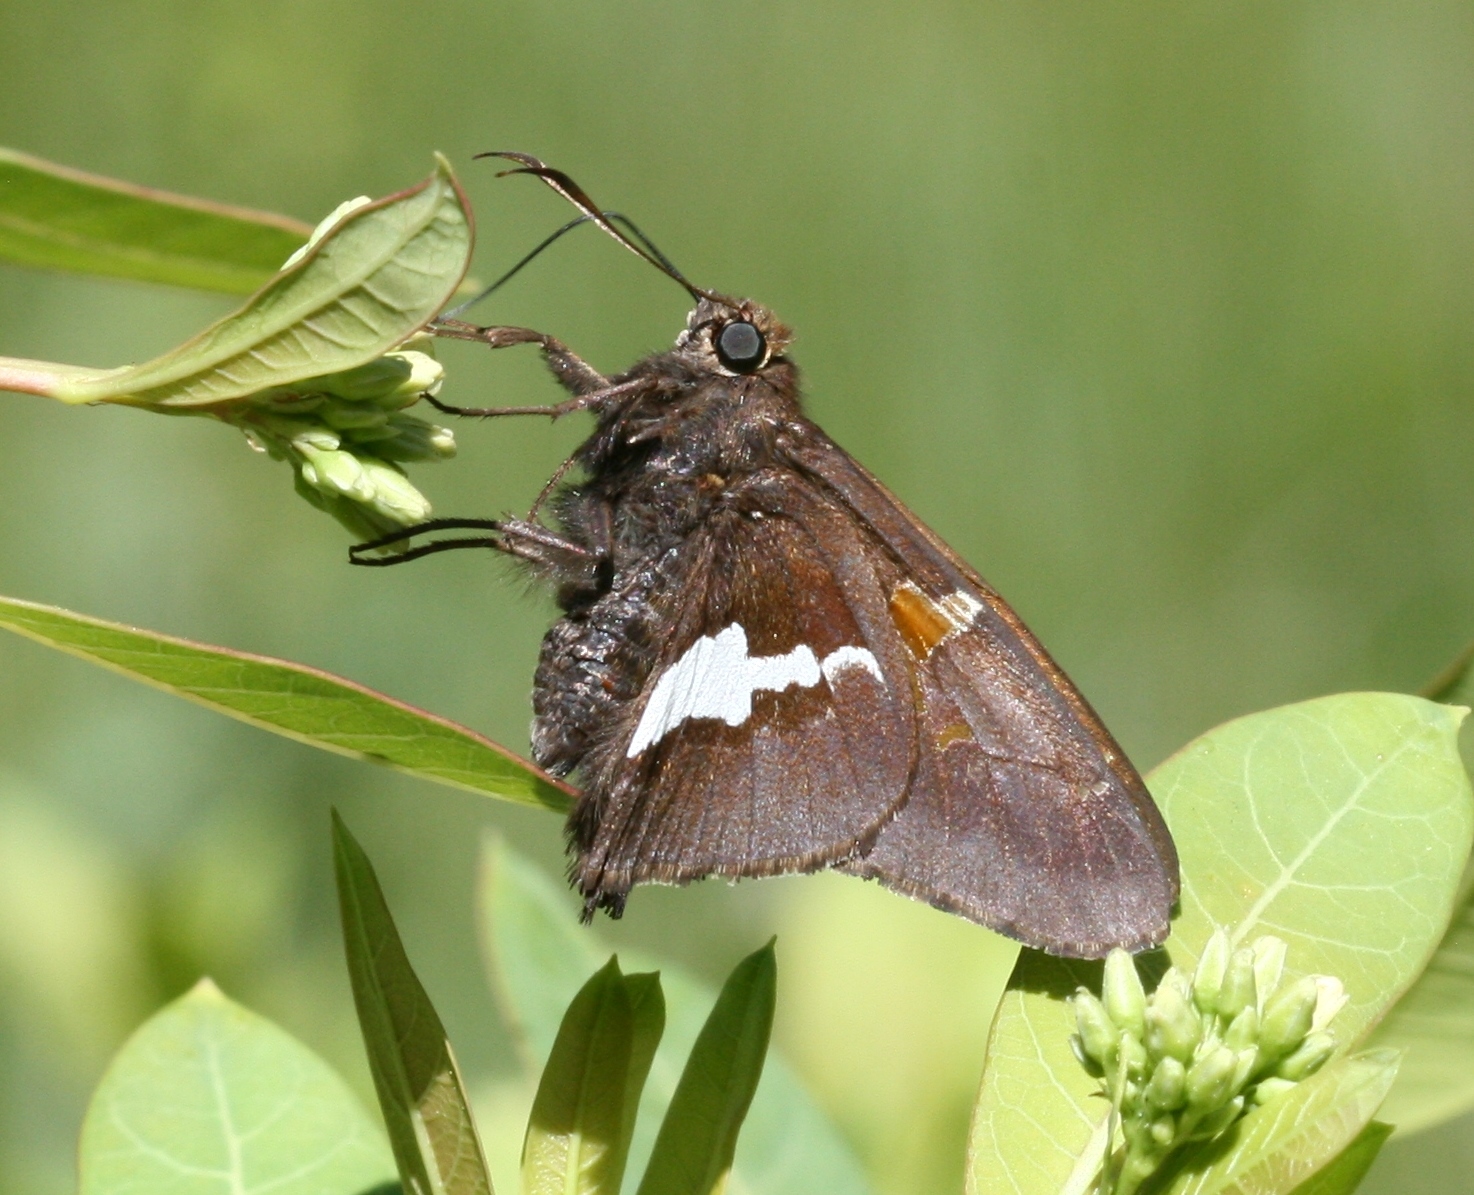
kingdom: Animalia
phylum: Arthropoda
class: Insecta
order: Lepidoptera
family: Hesperiidae
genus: Epargyreus
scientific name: Epargyreus clarus
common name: Silver-spotted skipper
